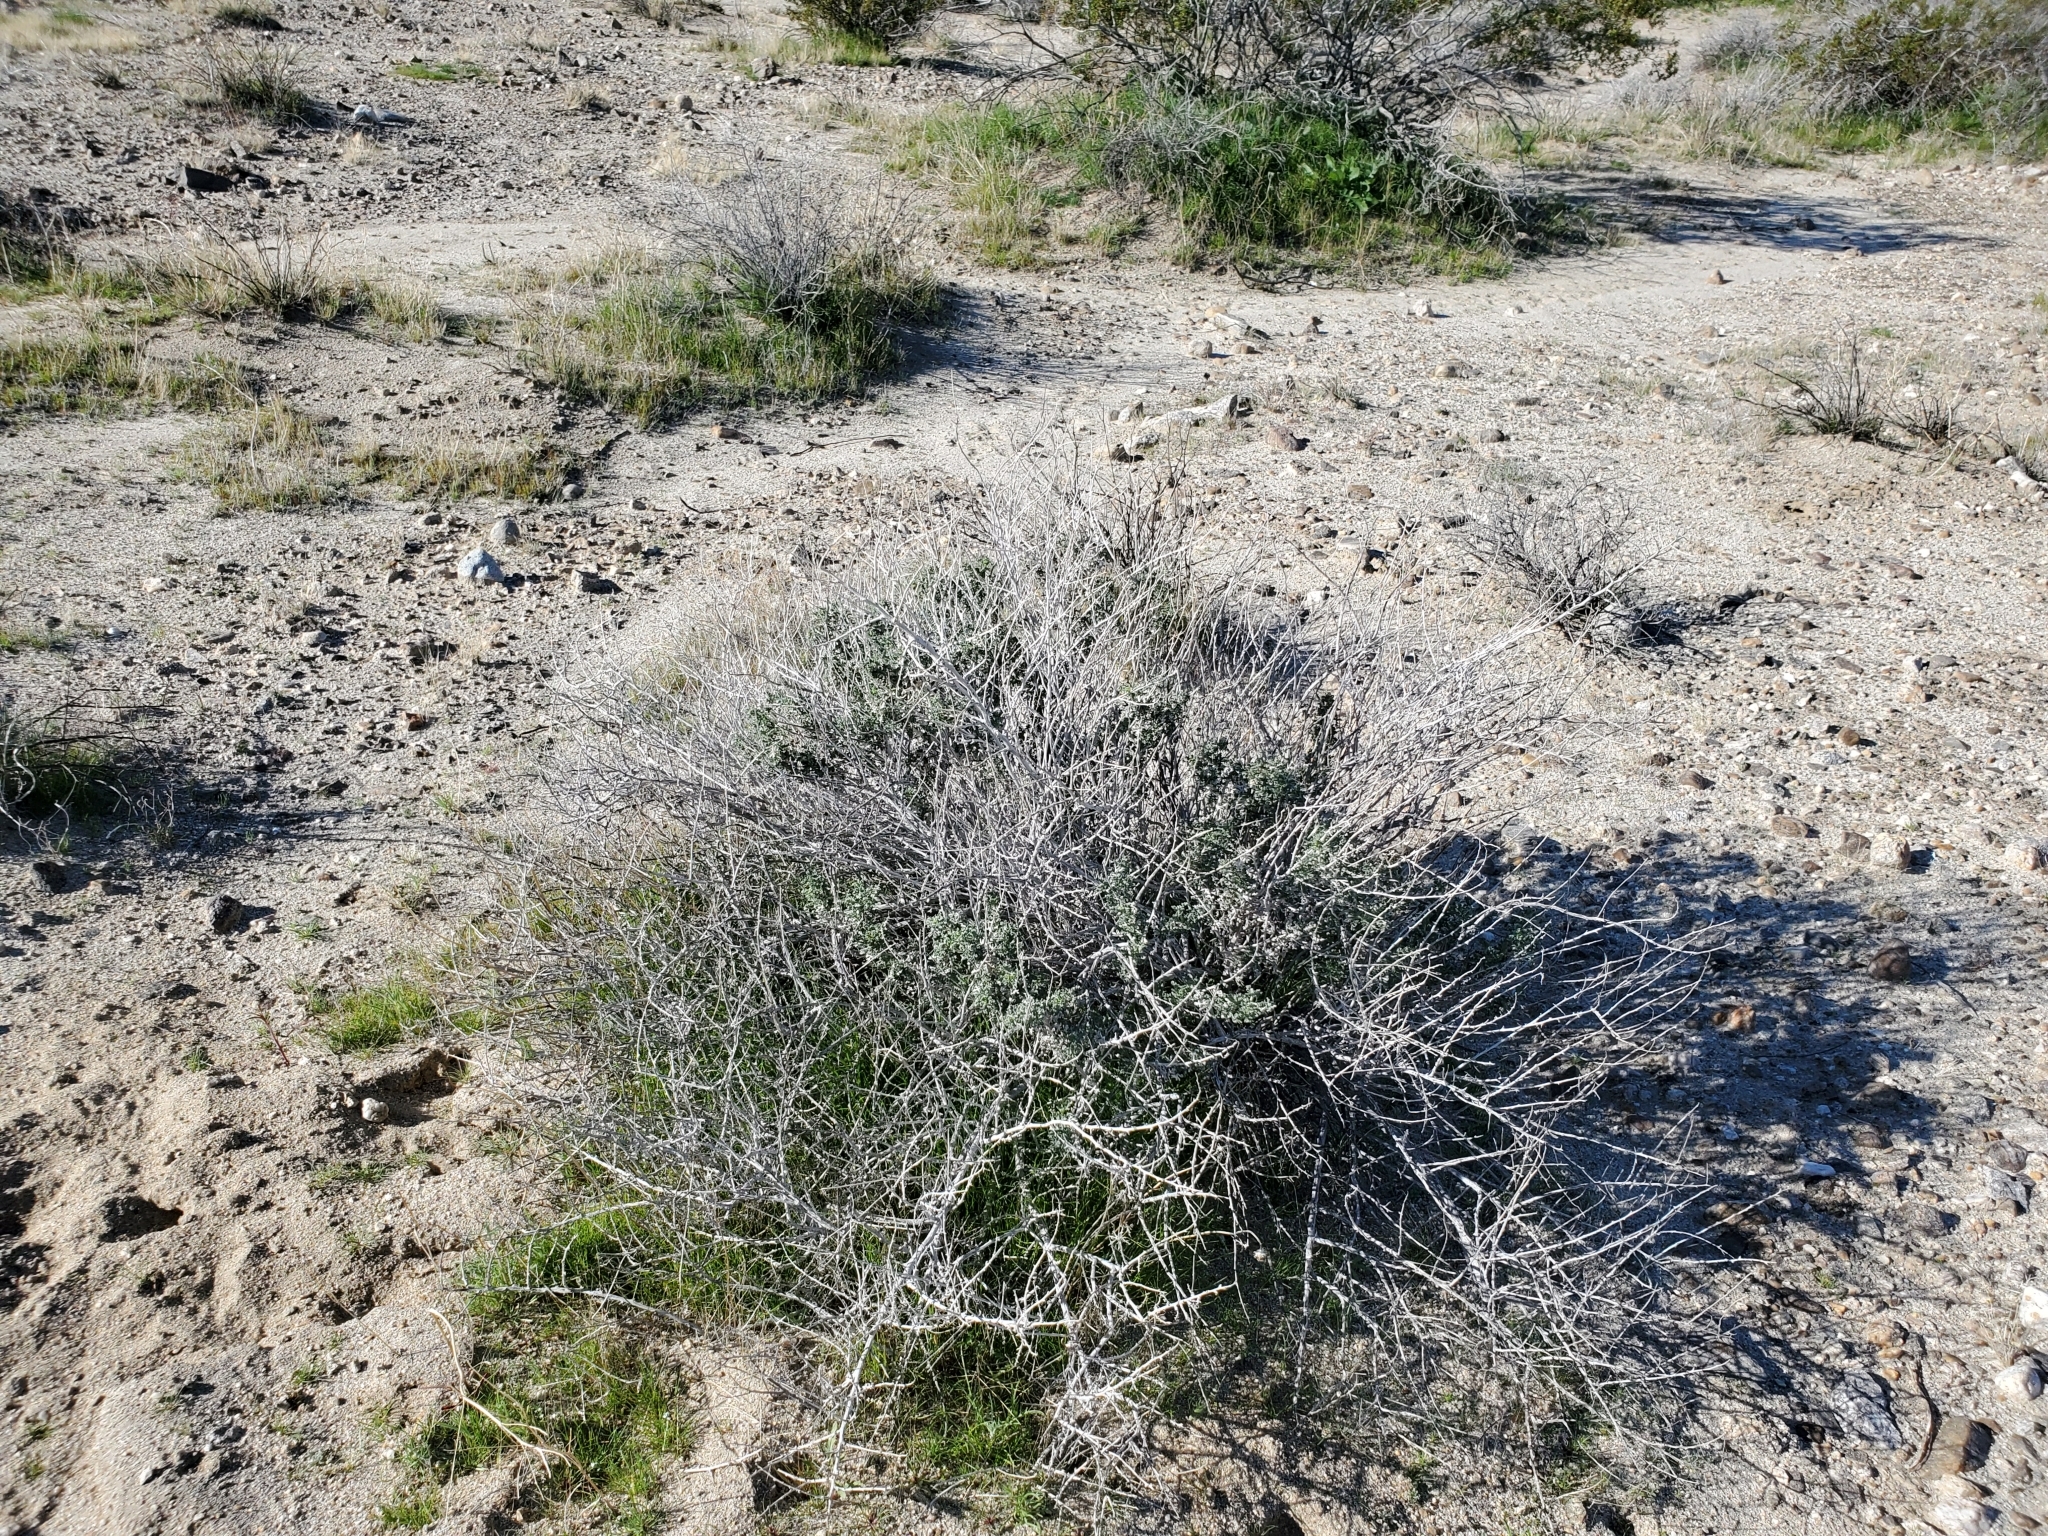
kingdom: Plantae
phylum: Tracheophyta
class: Magnoliopsida
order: Asterales
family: Asteraceae
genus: Ambrosia
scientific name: Ambrosia dumosa
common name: Bur-sage
